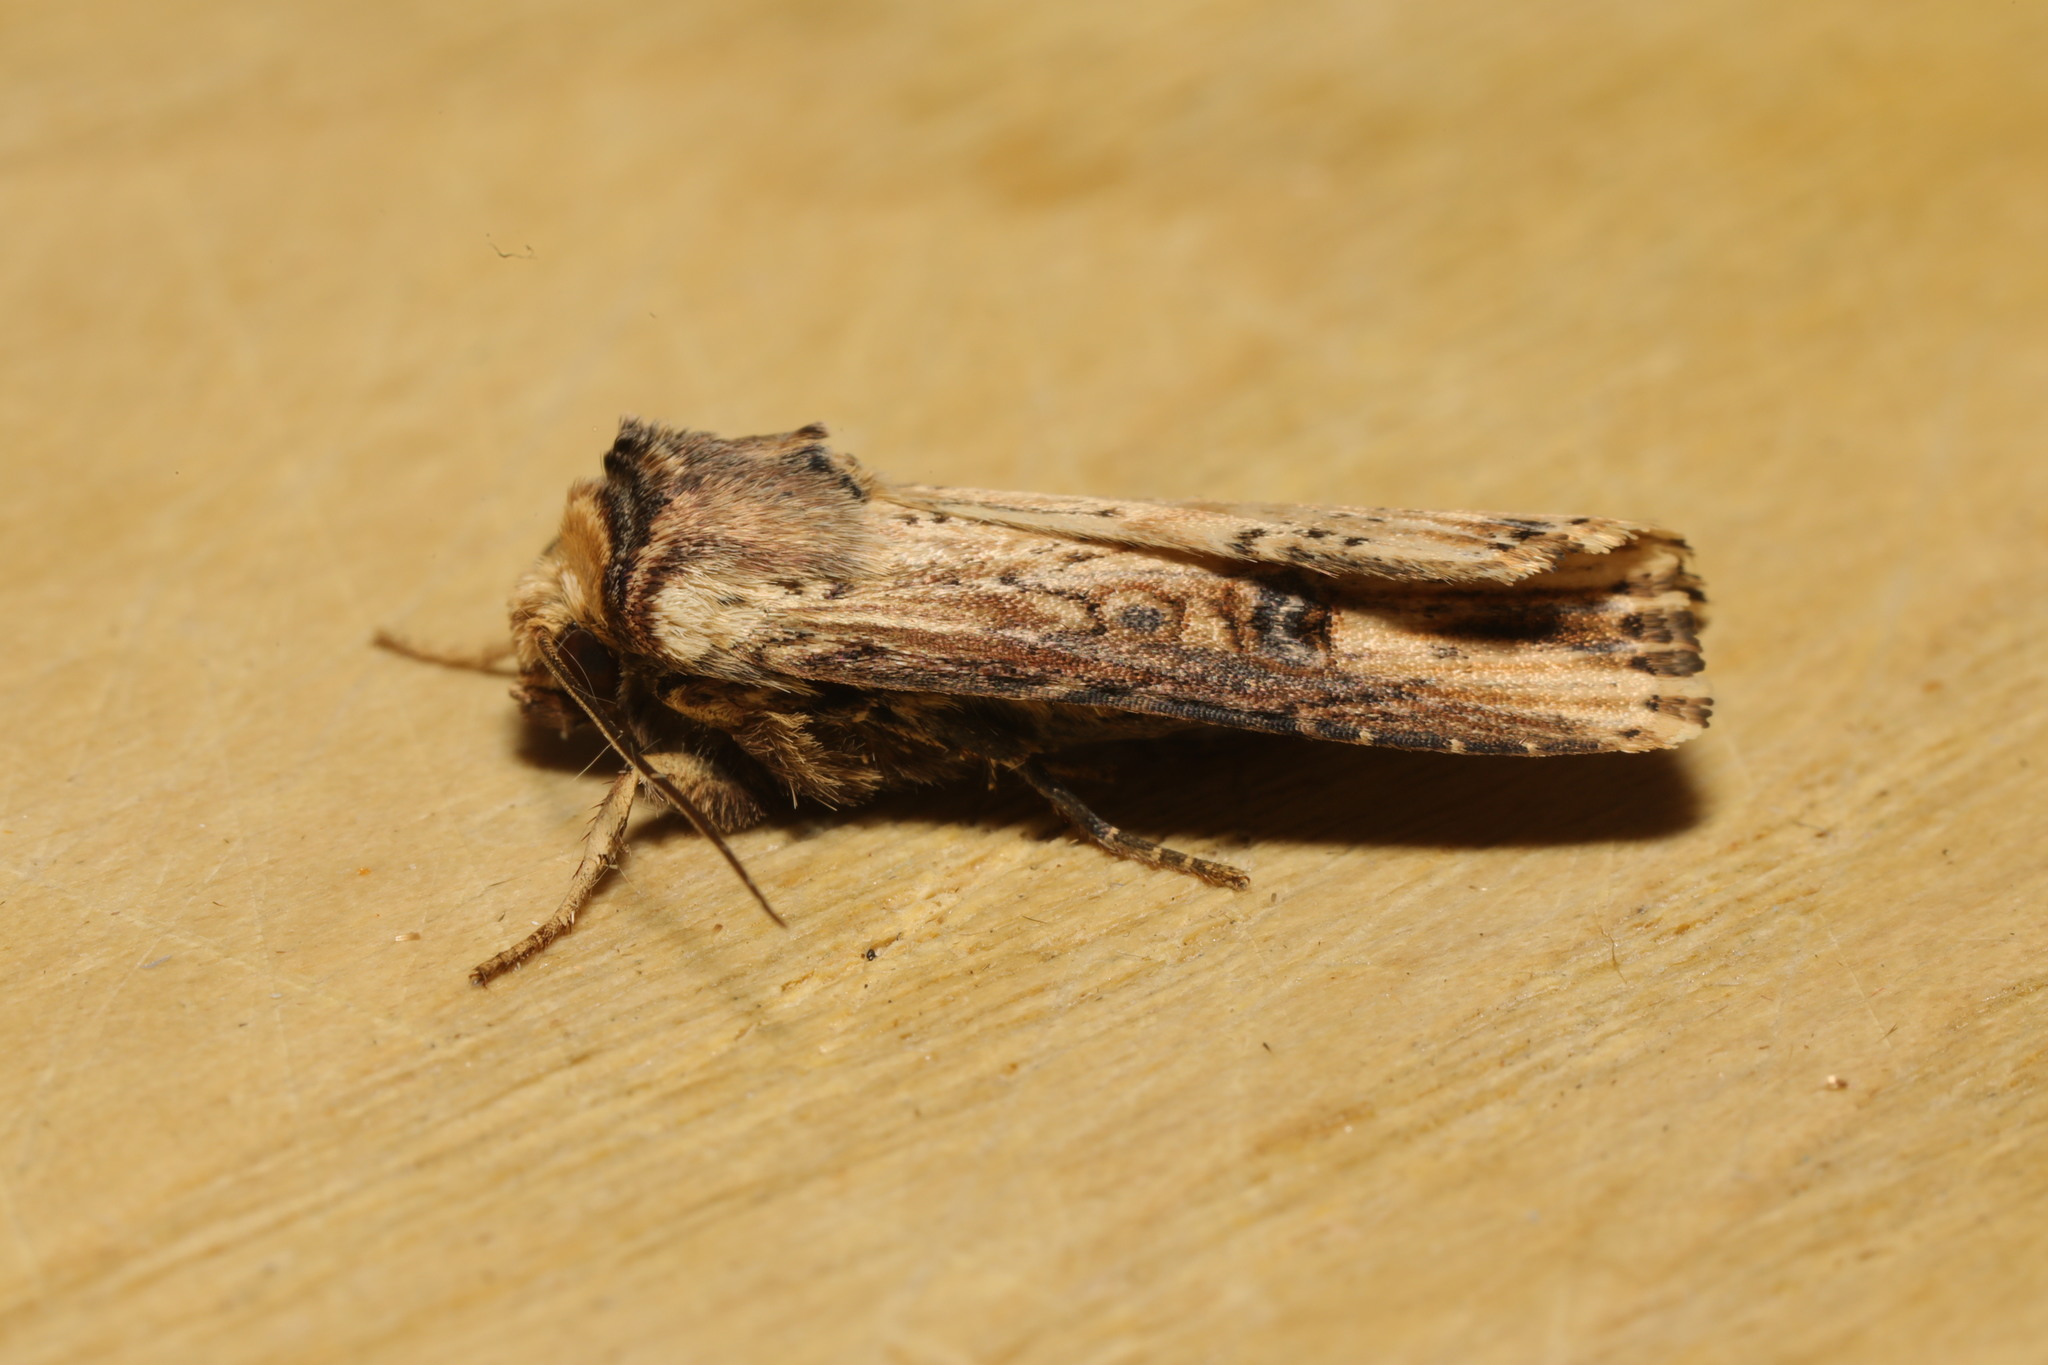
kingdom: Animalia
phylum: Arthropoda
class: Insecta
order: Lepidoptera
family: Noctuidae
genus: Axylia
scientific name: Axylia putris
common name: Flame
